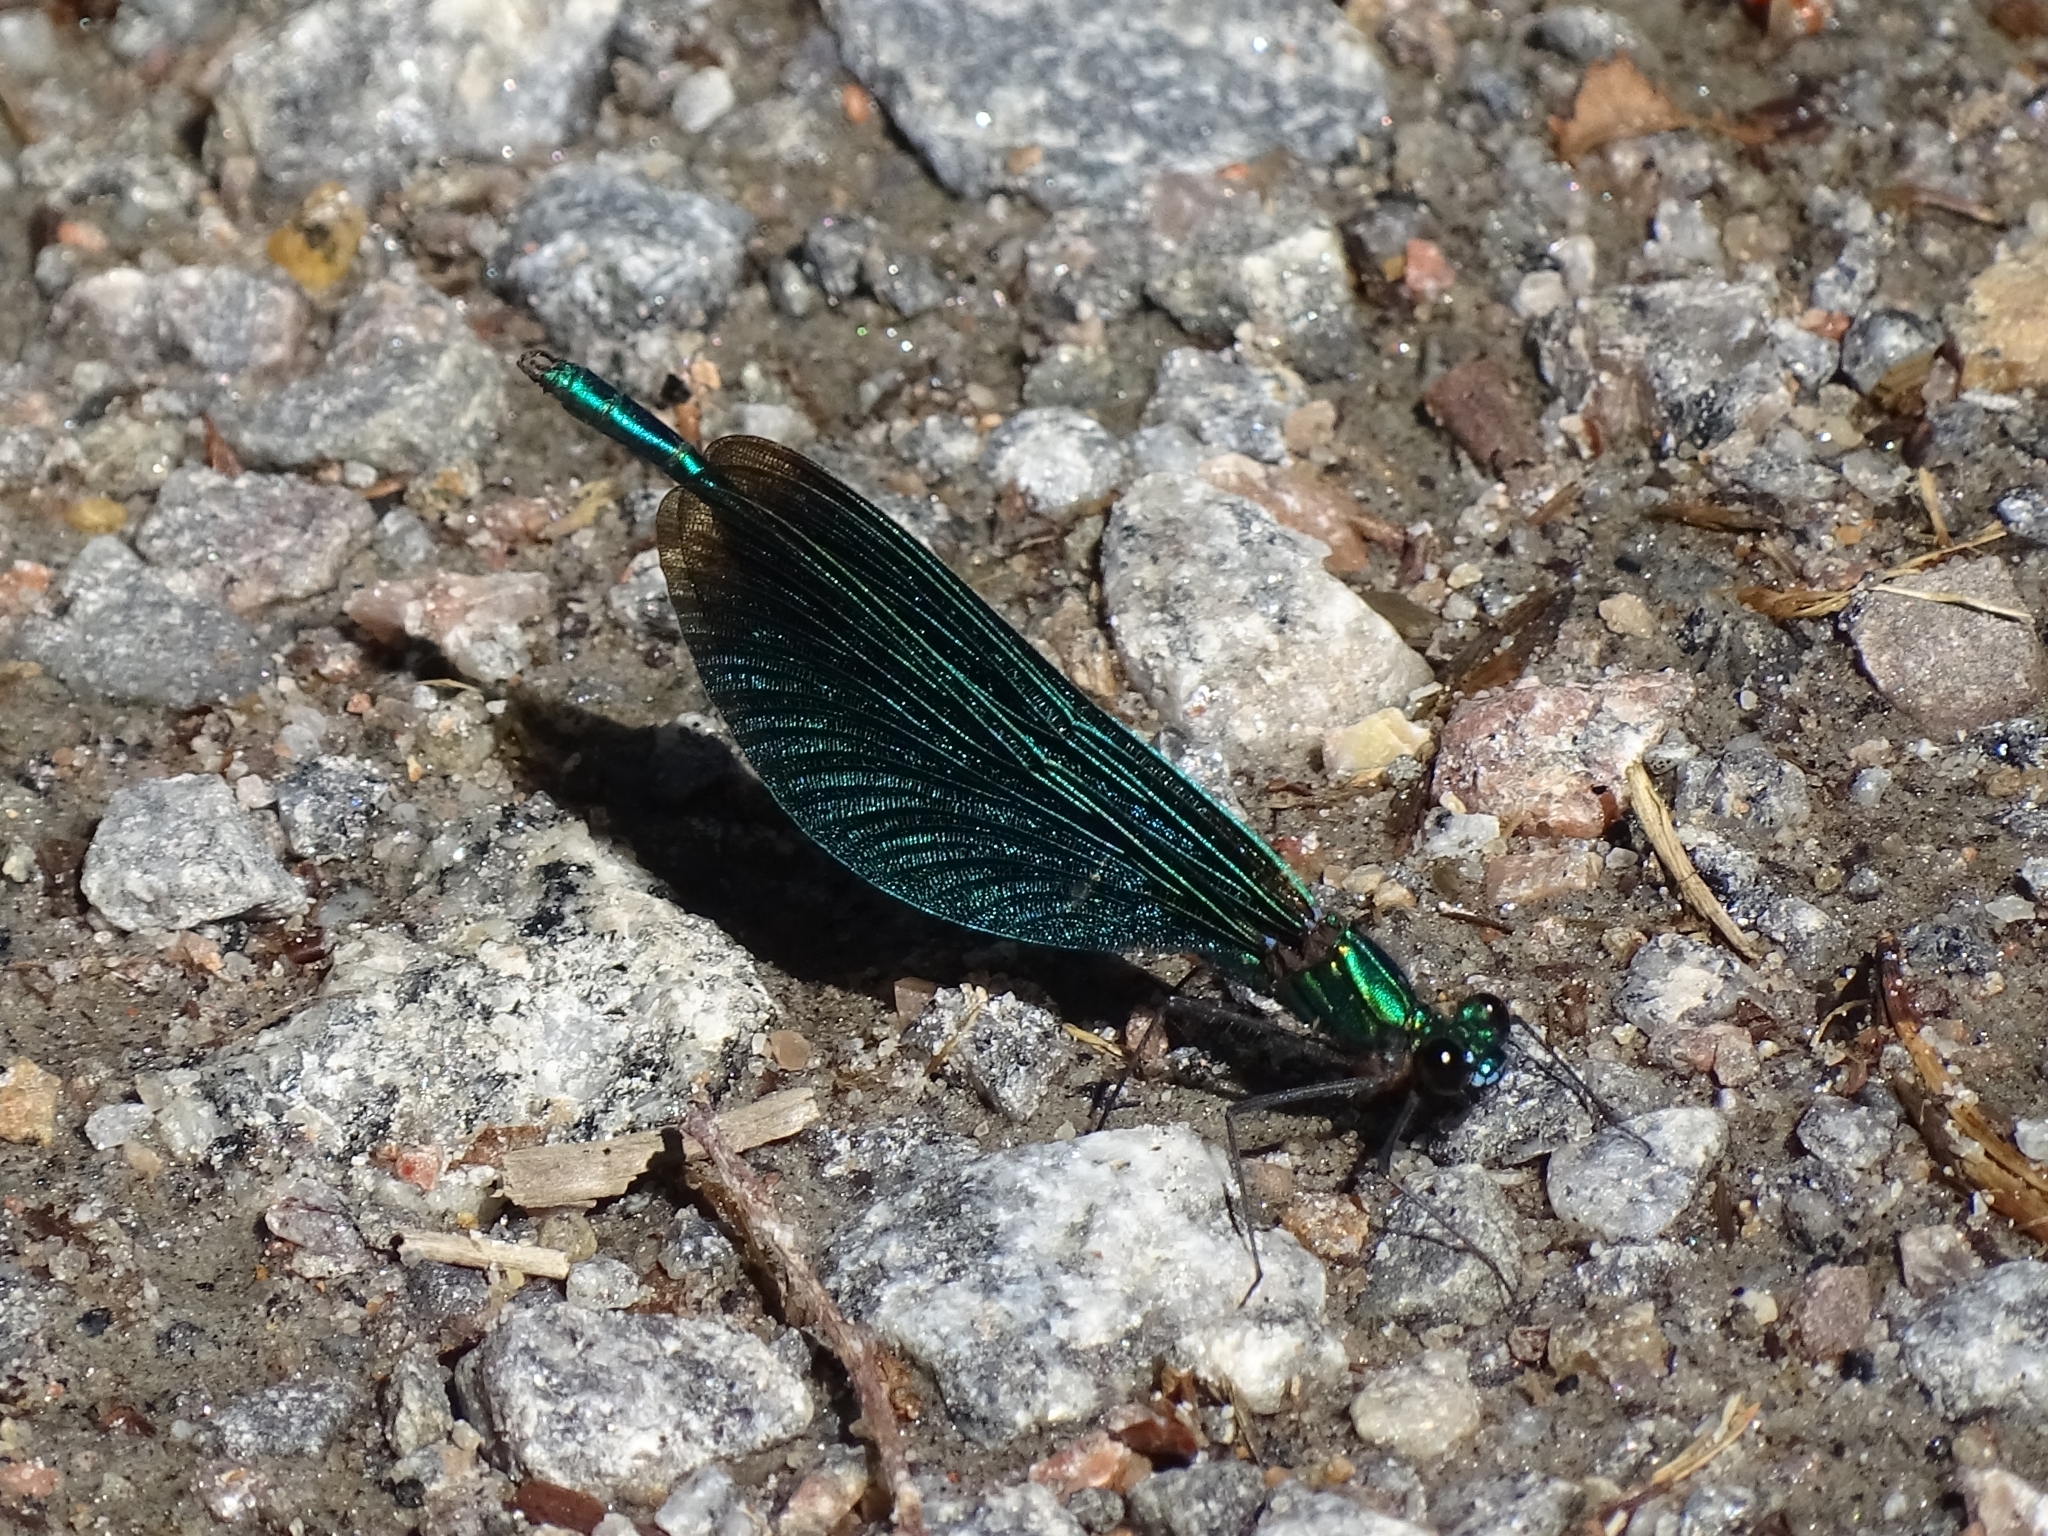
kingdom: Animalia
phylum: Arthropoda
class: Insecta
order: Odonata
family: Calopterygidae
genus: Calopteryx
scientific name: Calopteryx virgo
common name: Beautiful demoiselle
